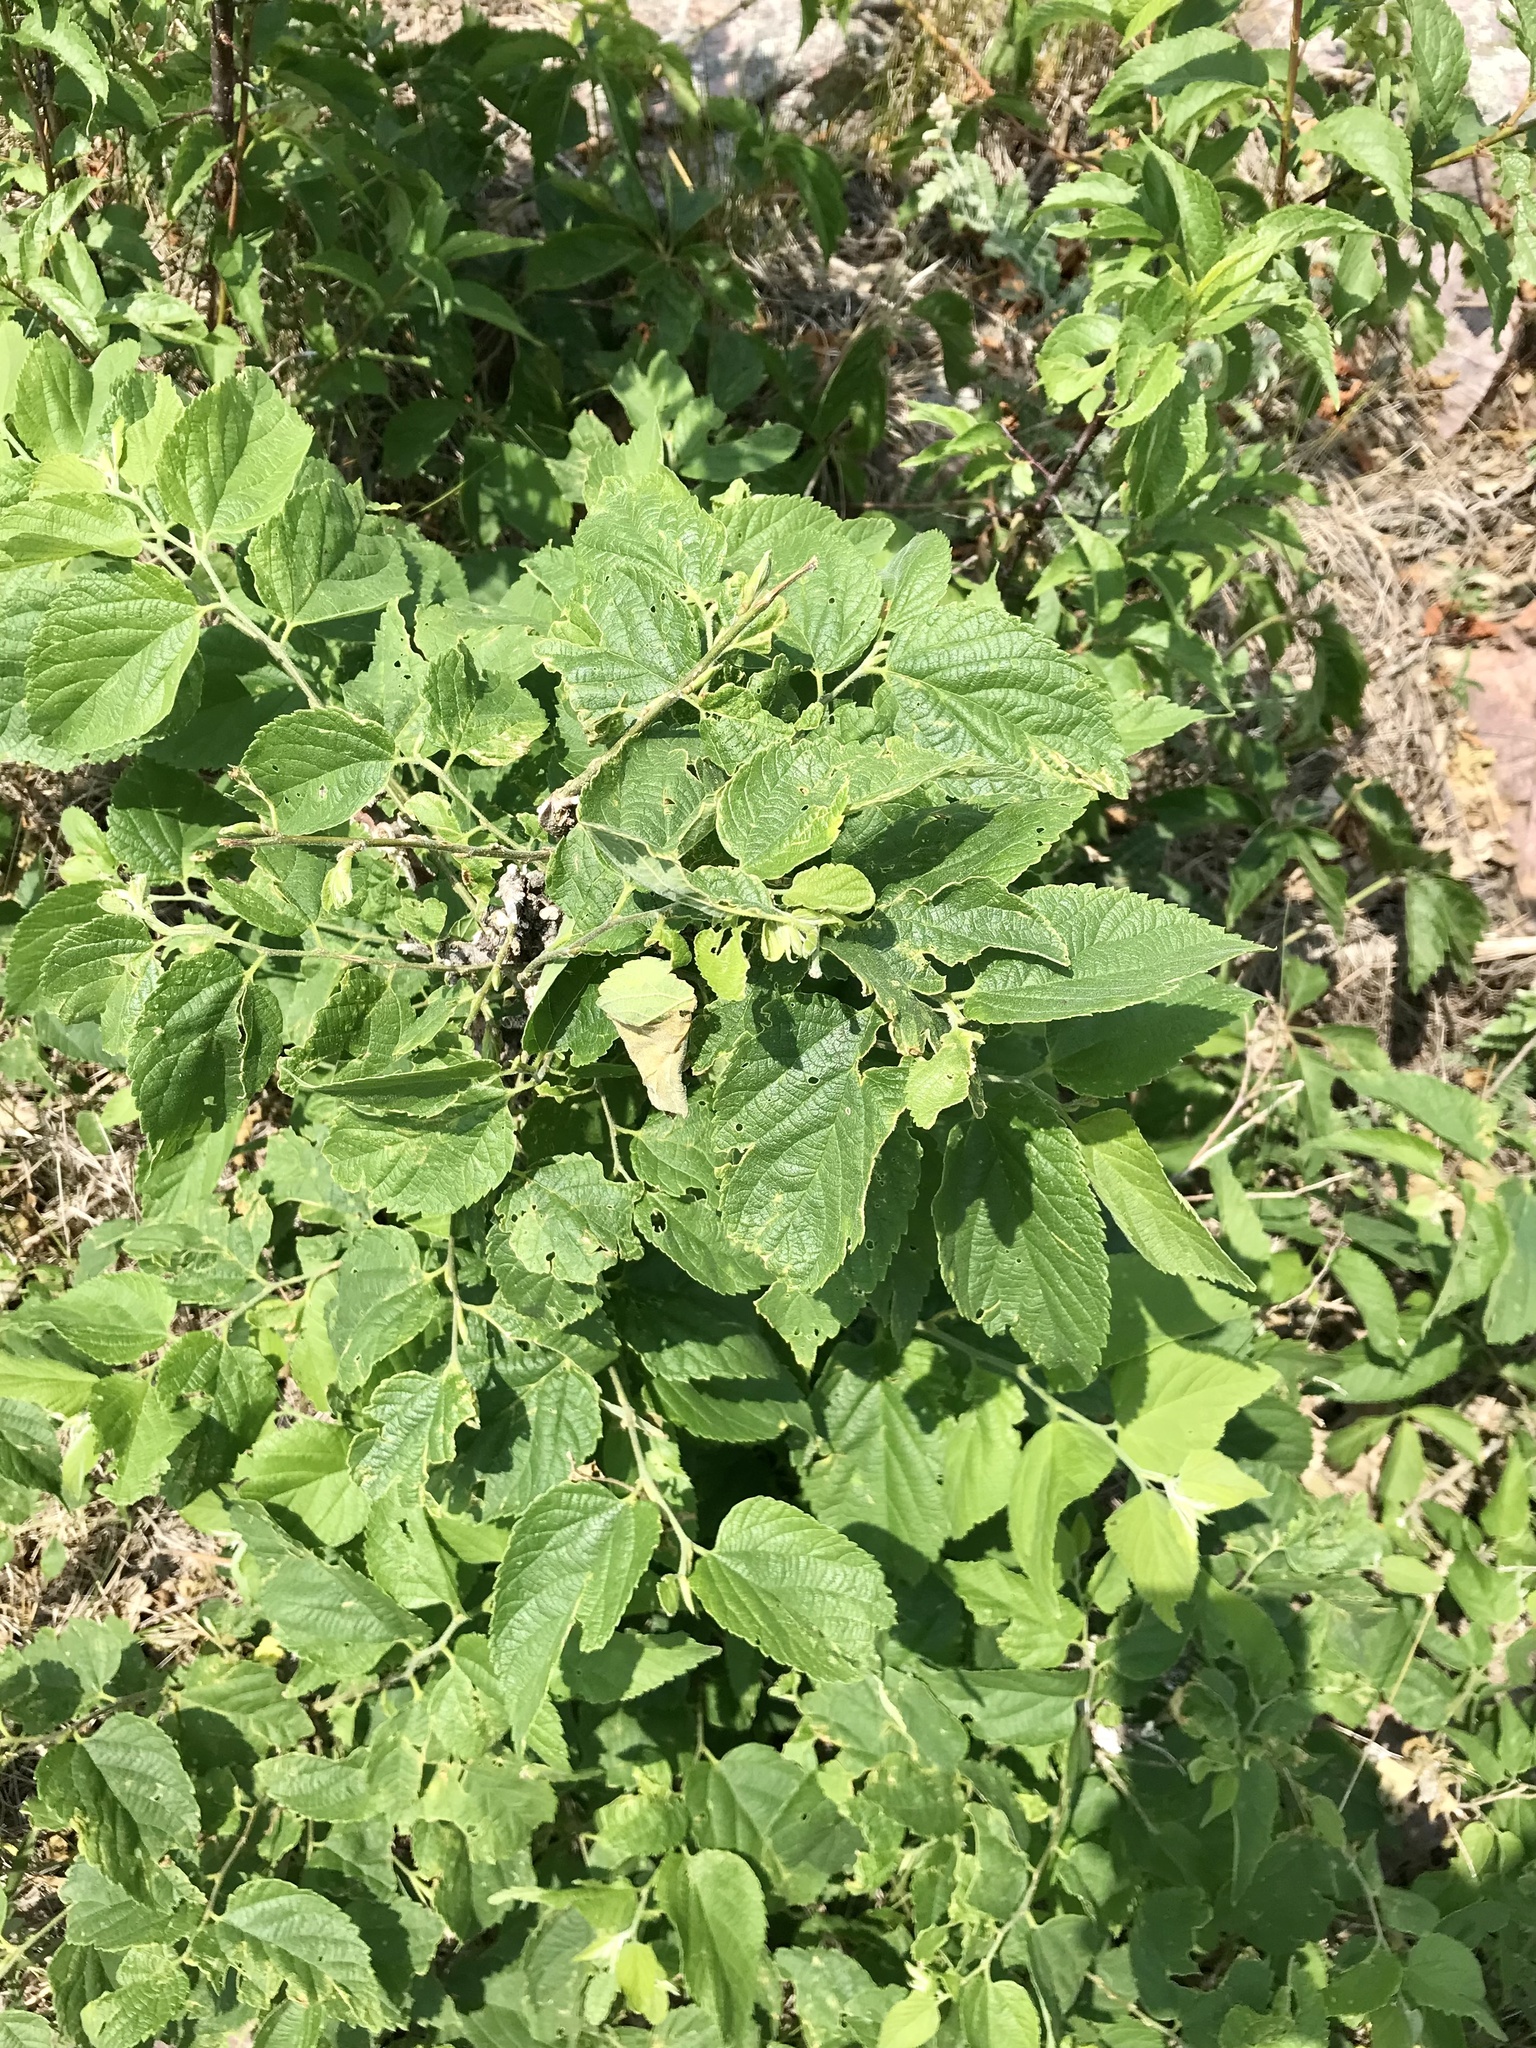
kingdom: Plantae
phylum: Tracheophyta
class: Magnoliopsida
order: Rosales
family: Cannabaceae
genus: Celtis
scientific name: Celtis occidentalis
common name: Common hackberry
